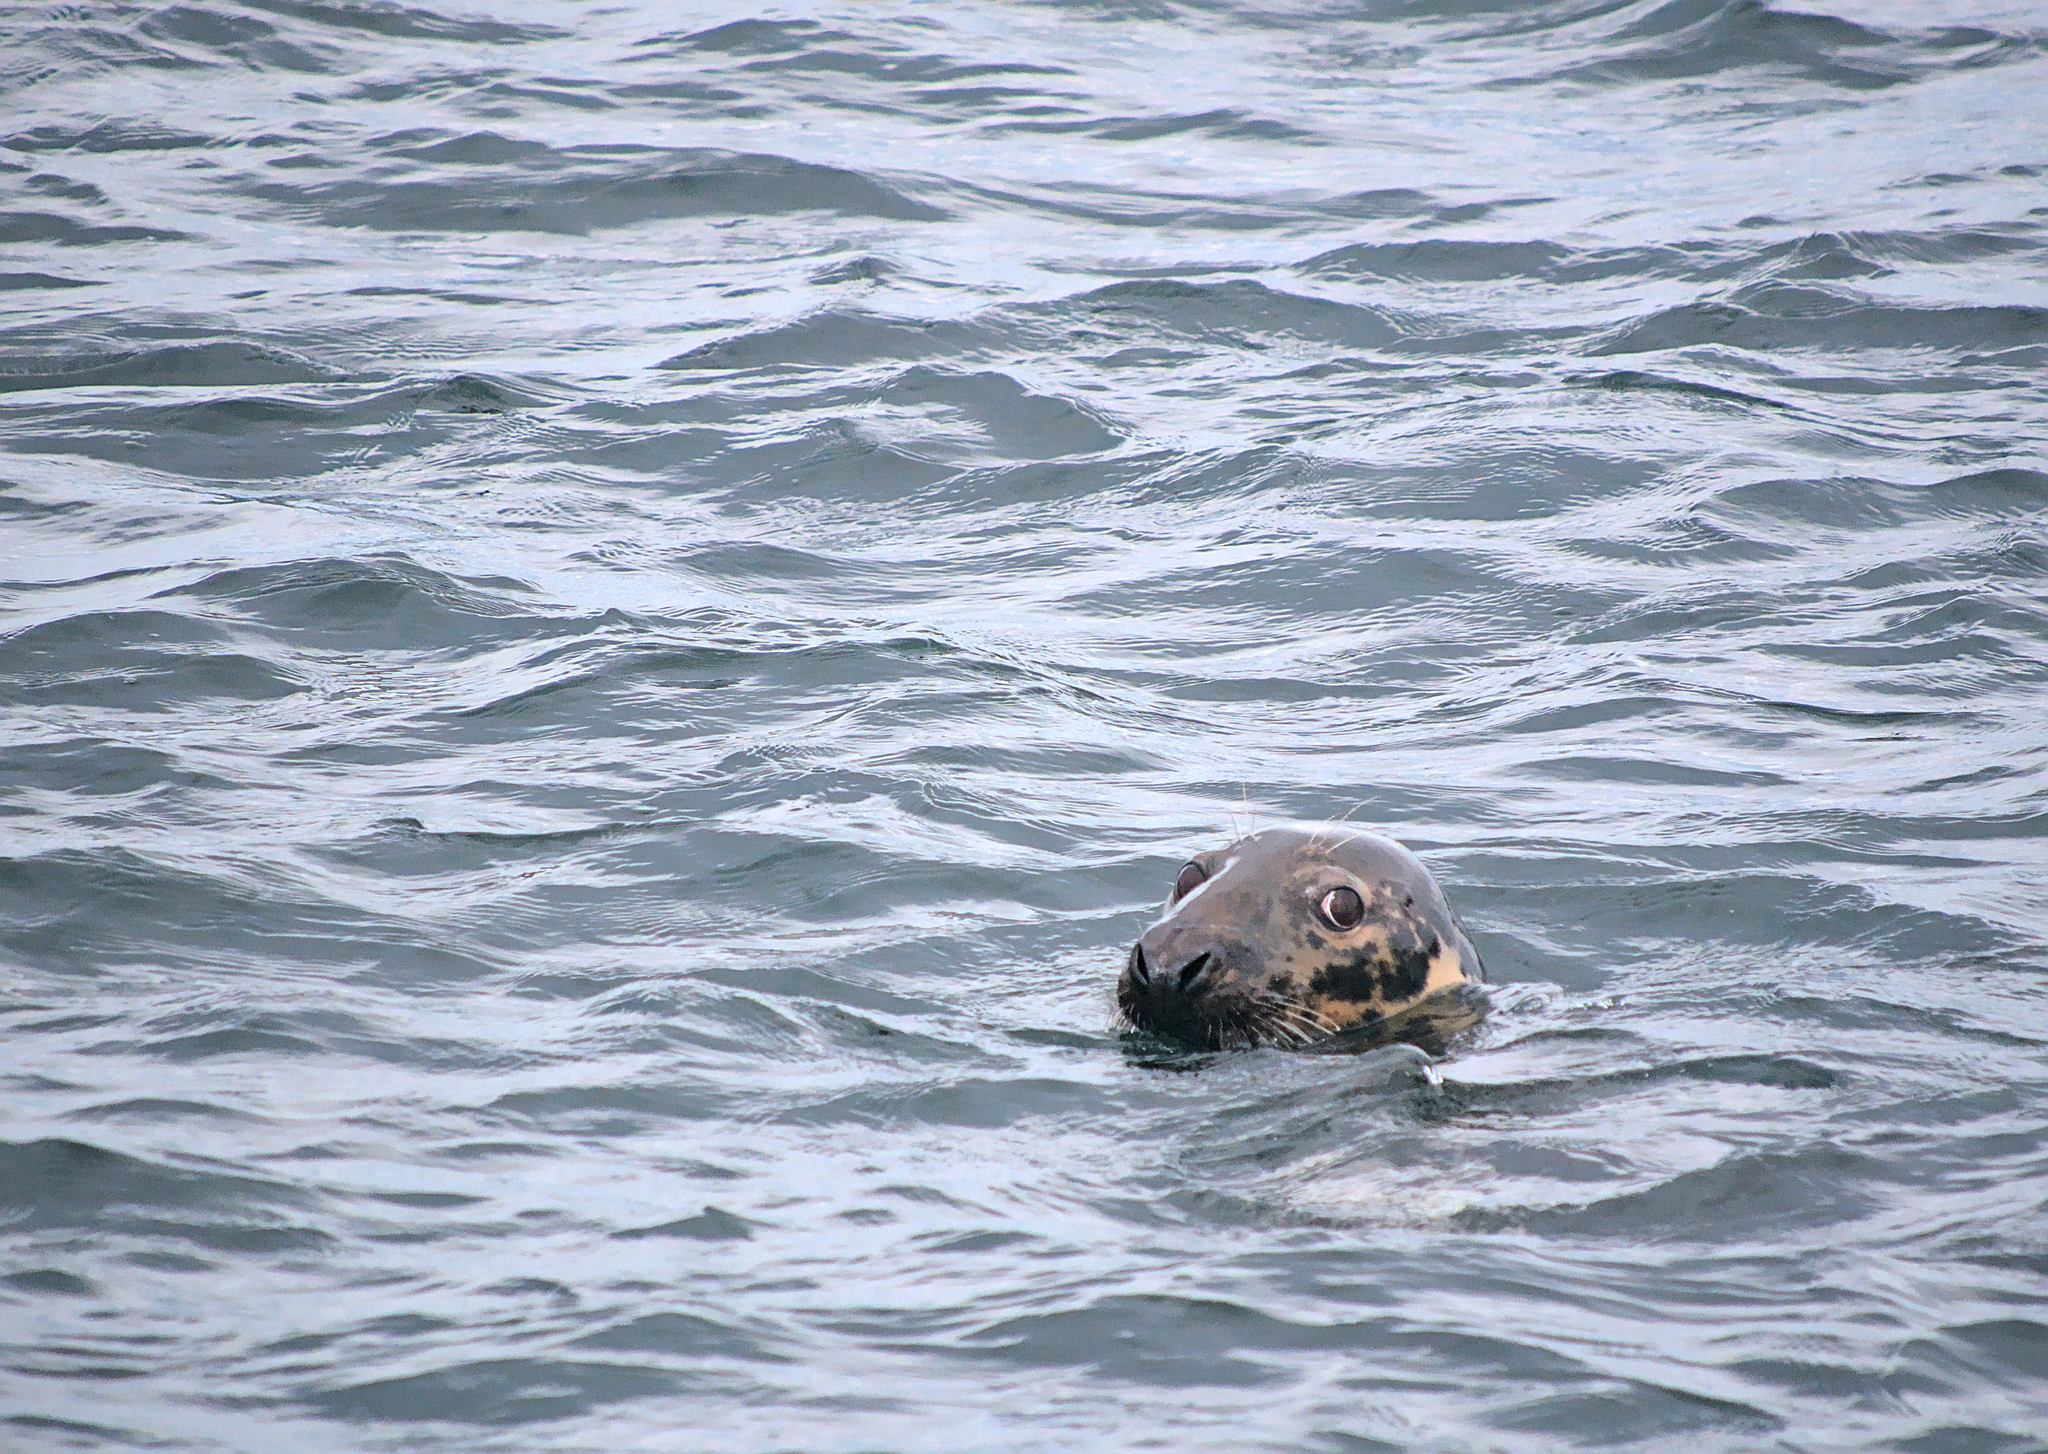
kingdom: Animalia
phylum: Chordata
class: Mammalia
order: Carnivora
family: Phocidae
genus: Halichoerus
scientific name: Halichoerus grypus
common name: Grey seal
